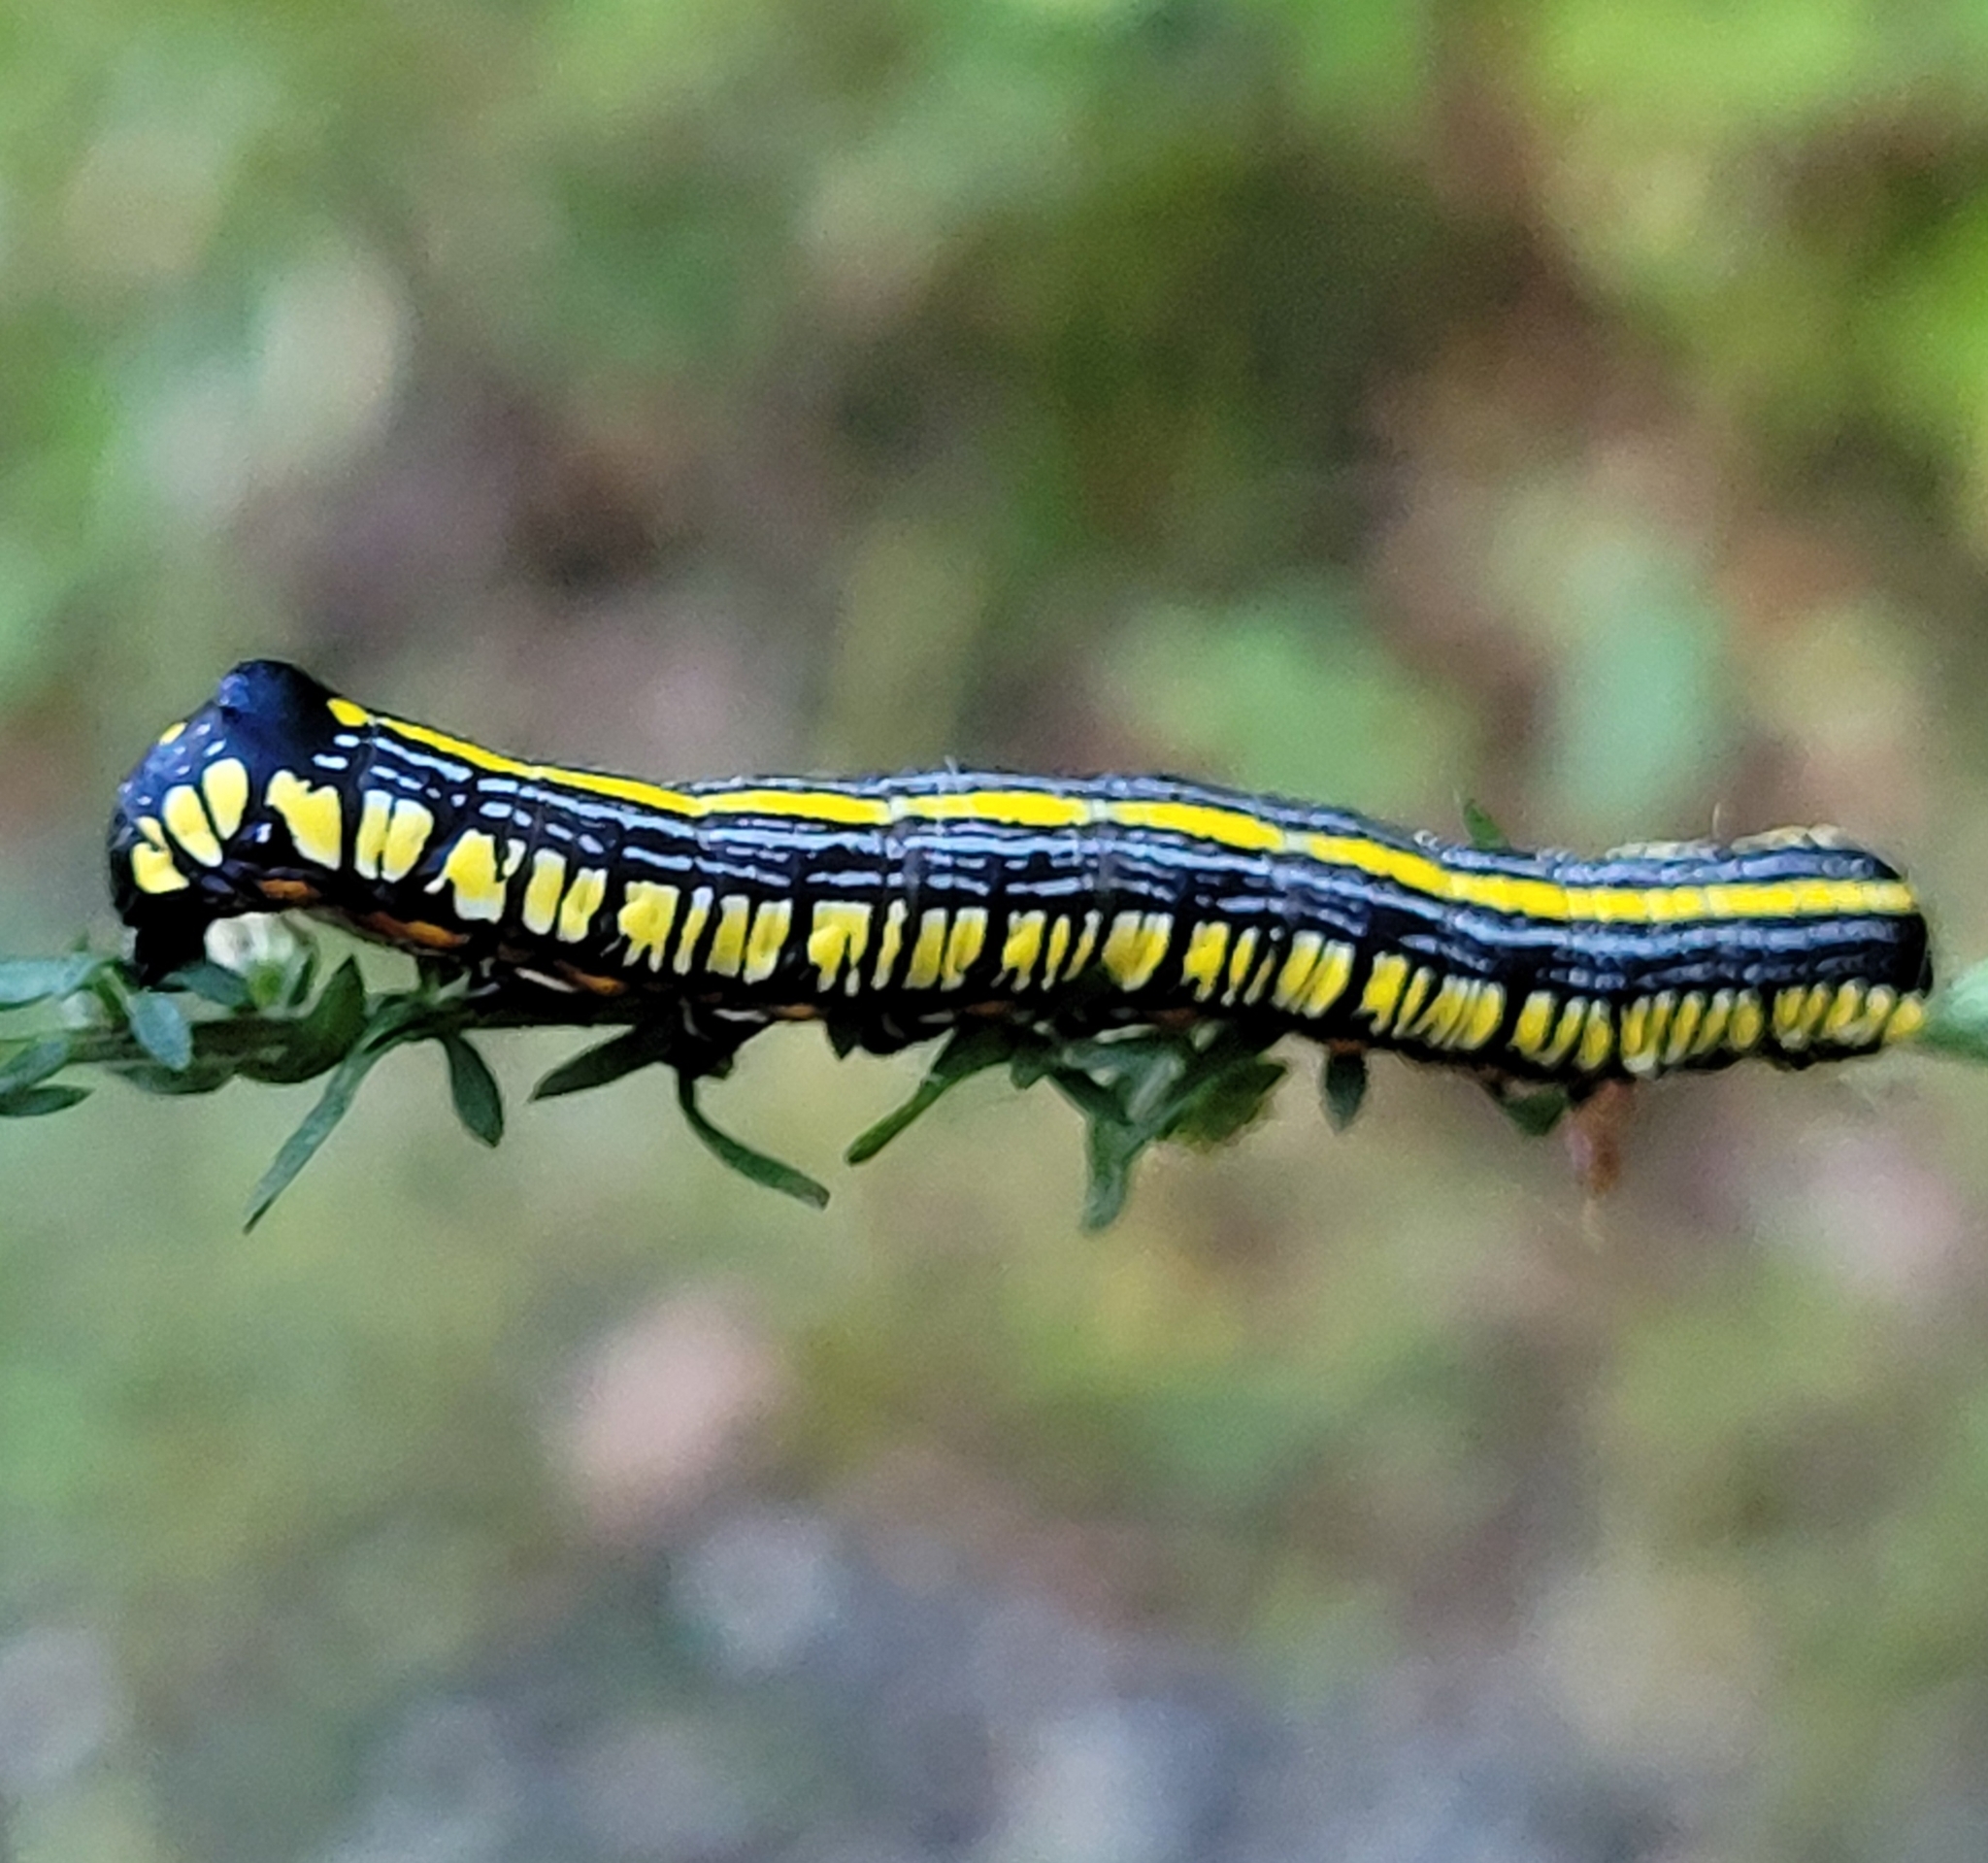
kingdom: Animalia
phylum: Arthropoda
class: Insecta
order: Lepidoptera
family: Noctuidae
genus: Cucullia
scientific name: Cucullia convexipennis
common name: Brown-hooded owlet
